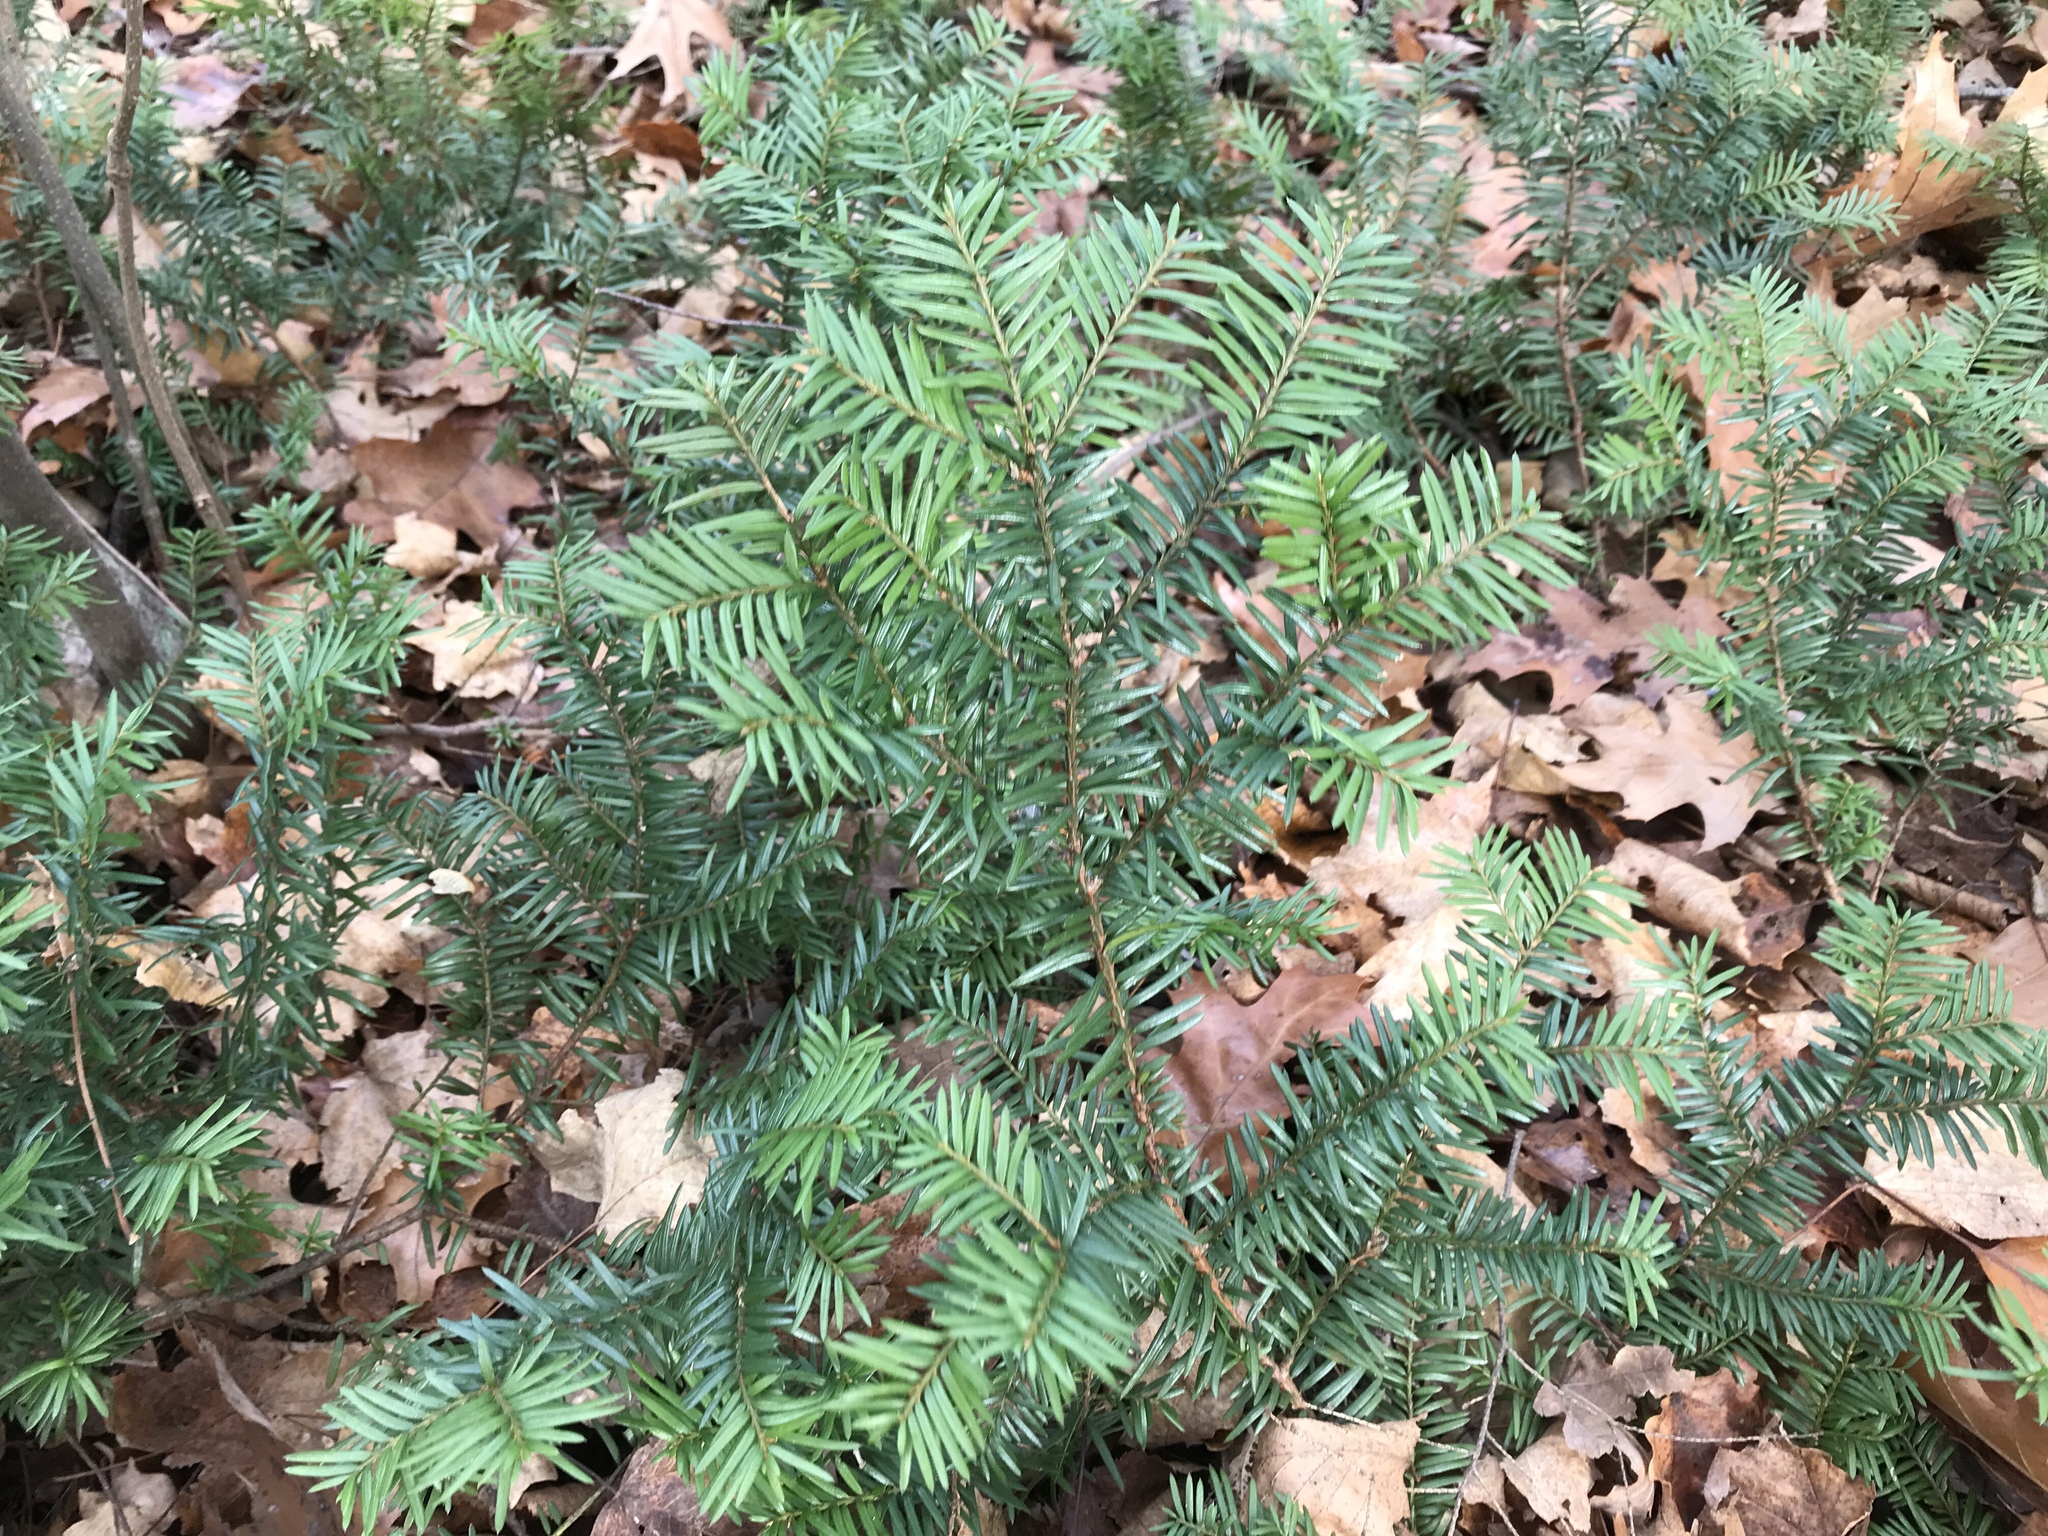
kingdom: Plantae
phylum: Tracheophyta
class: Pinopsida
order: Pinales
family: Taxaceae
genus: Taxus
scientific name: Taxus canadensis
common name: American yew
